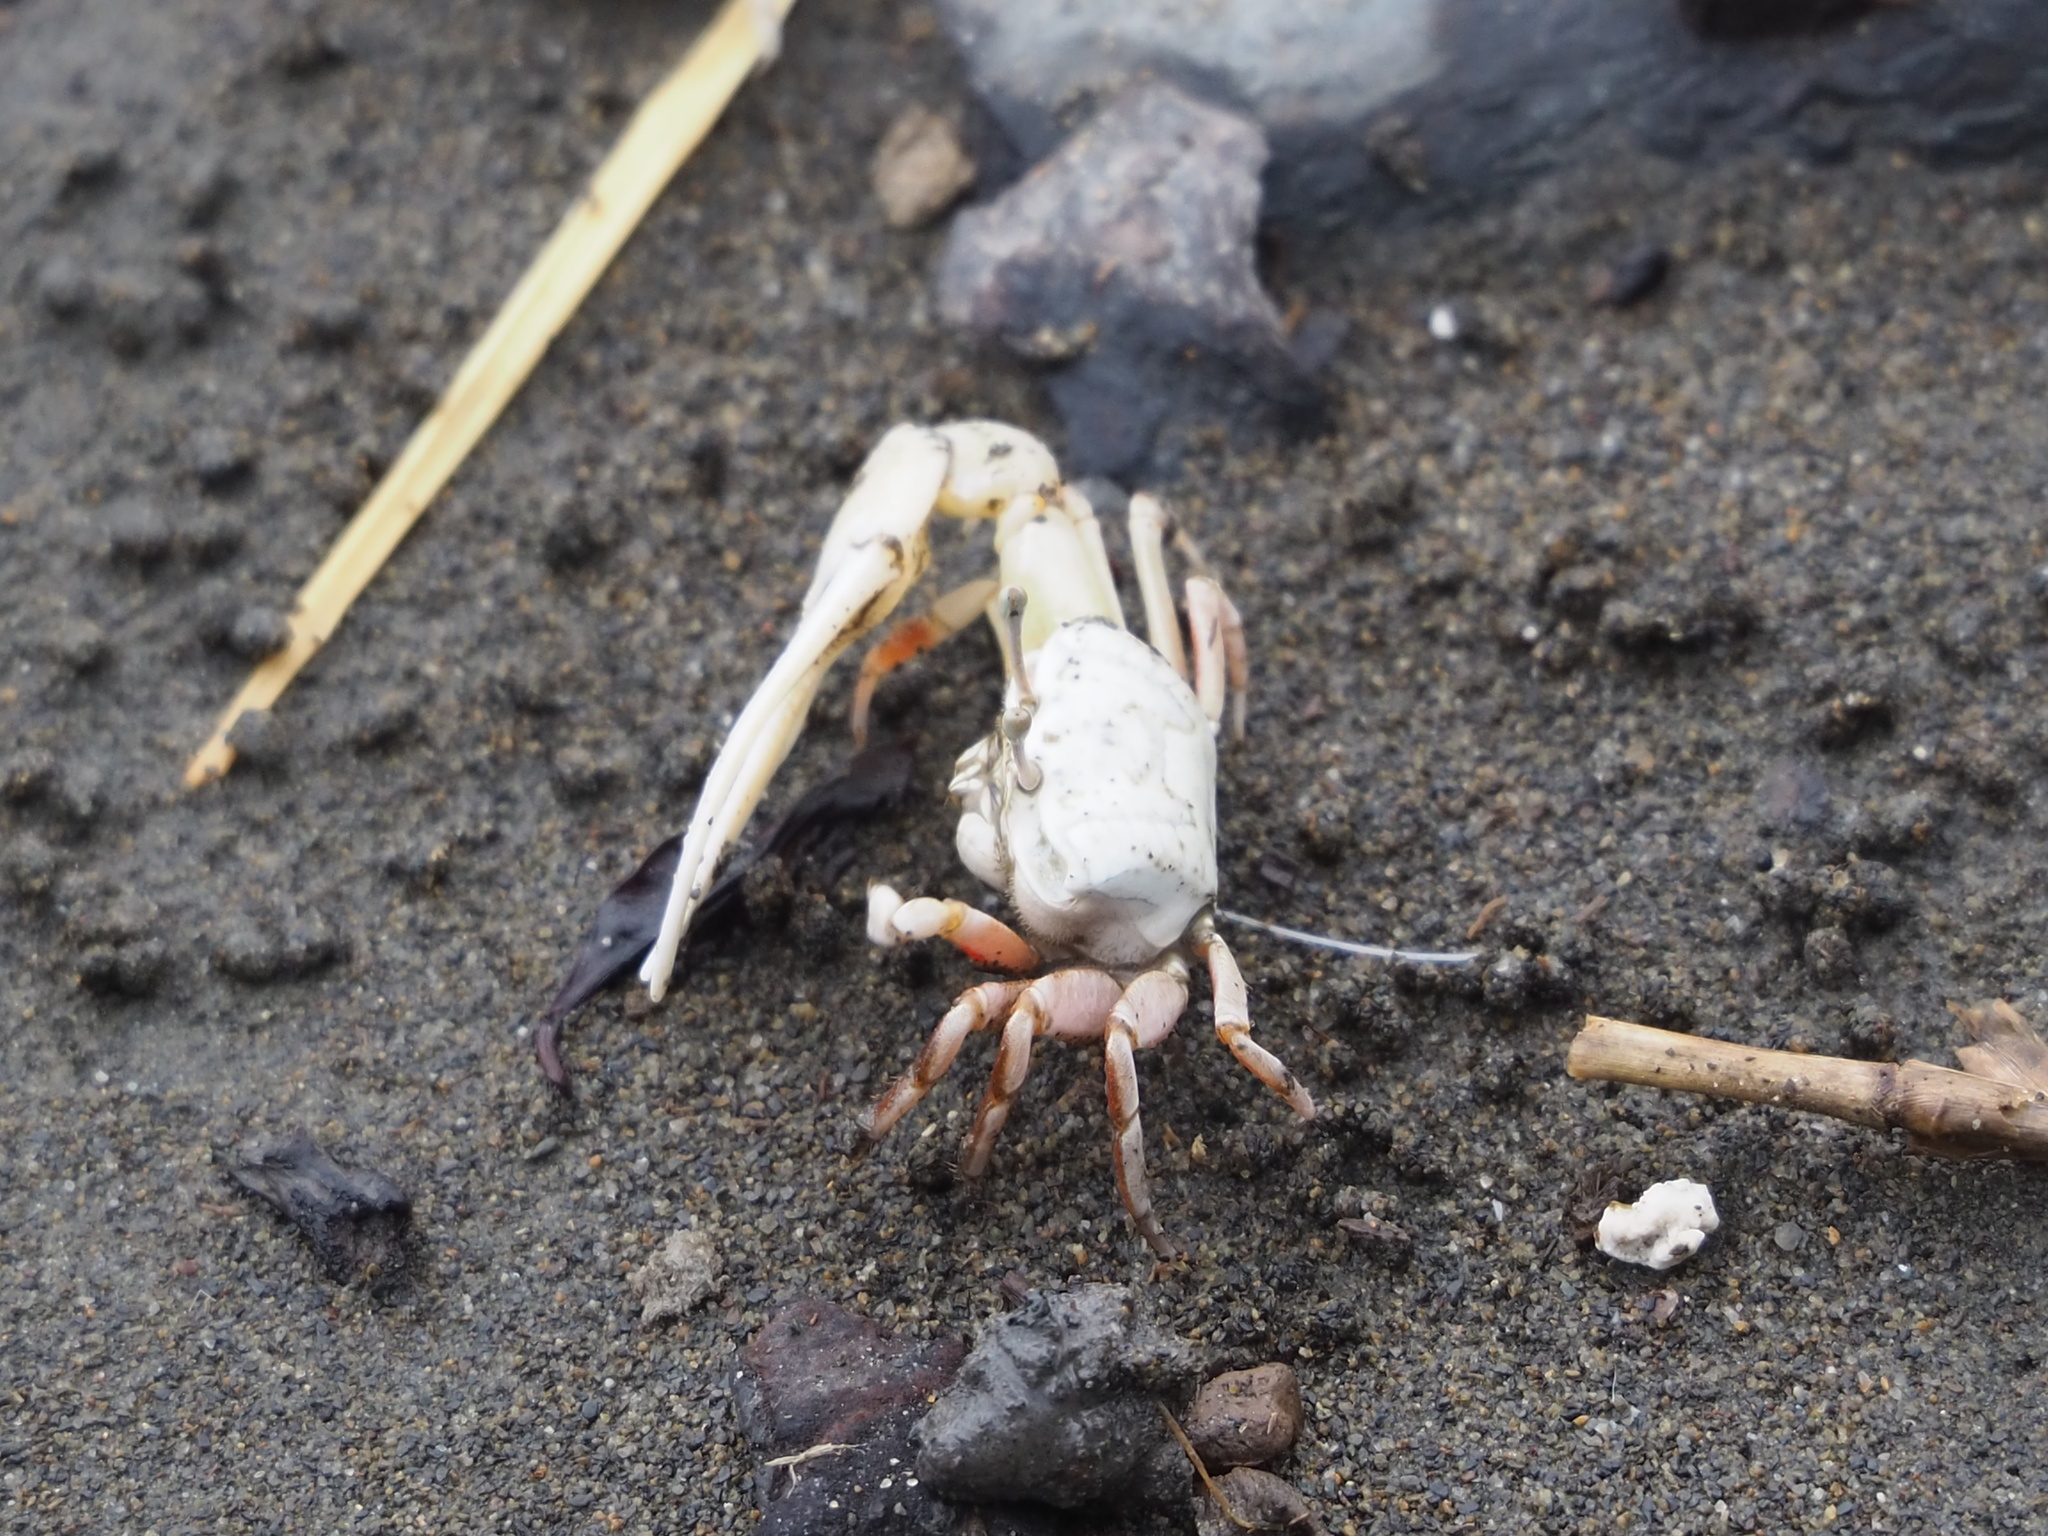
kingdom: Animalia
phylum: Arthropoda
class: Malacostraca
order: Decapoda
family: Ocypodidae
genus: Austruca
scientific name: Austruca lactea
